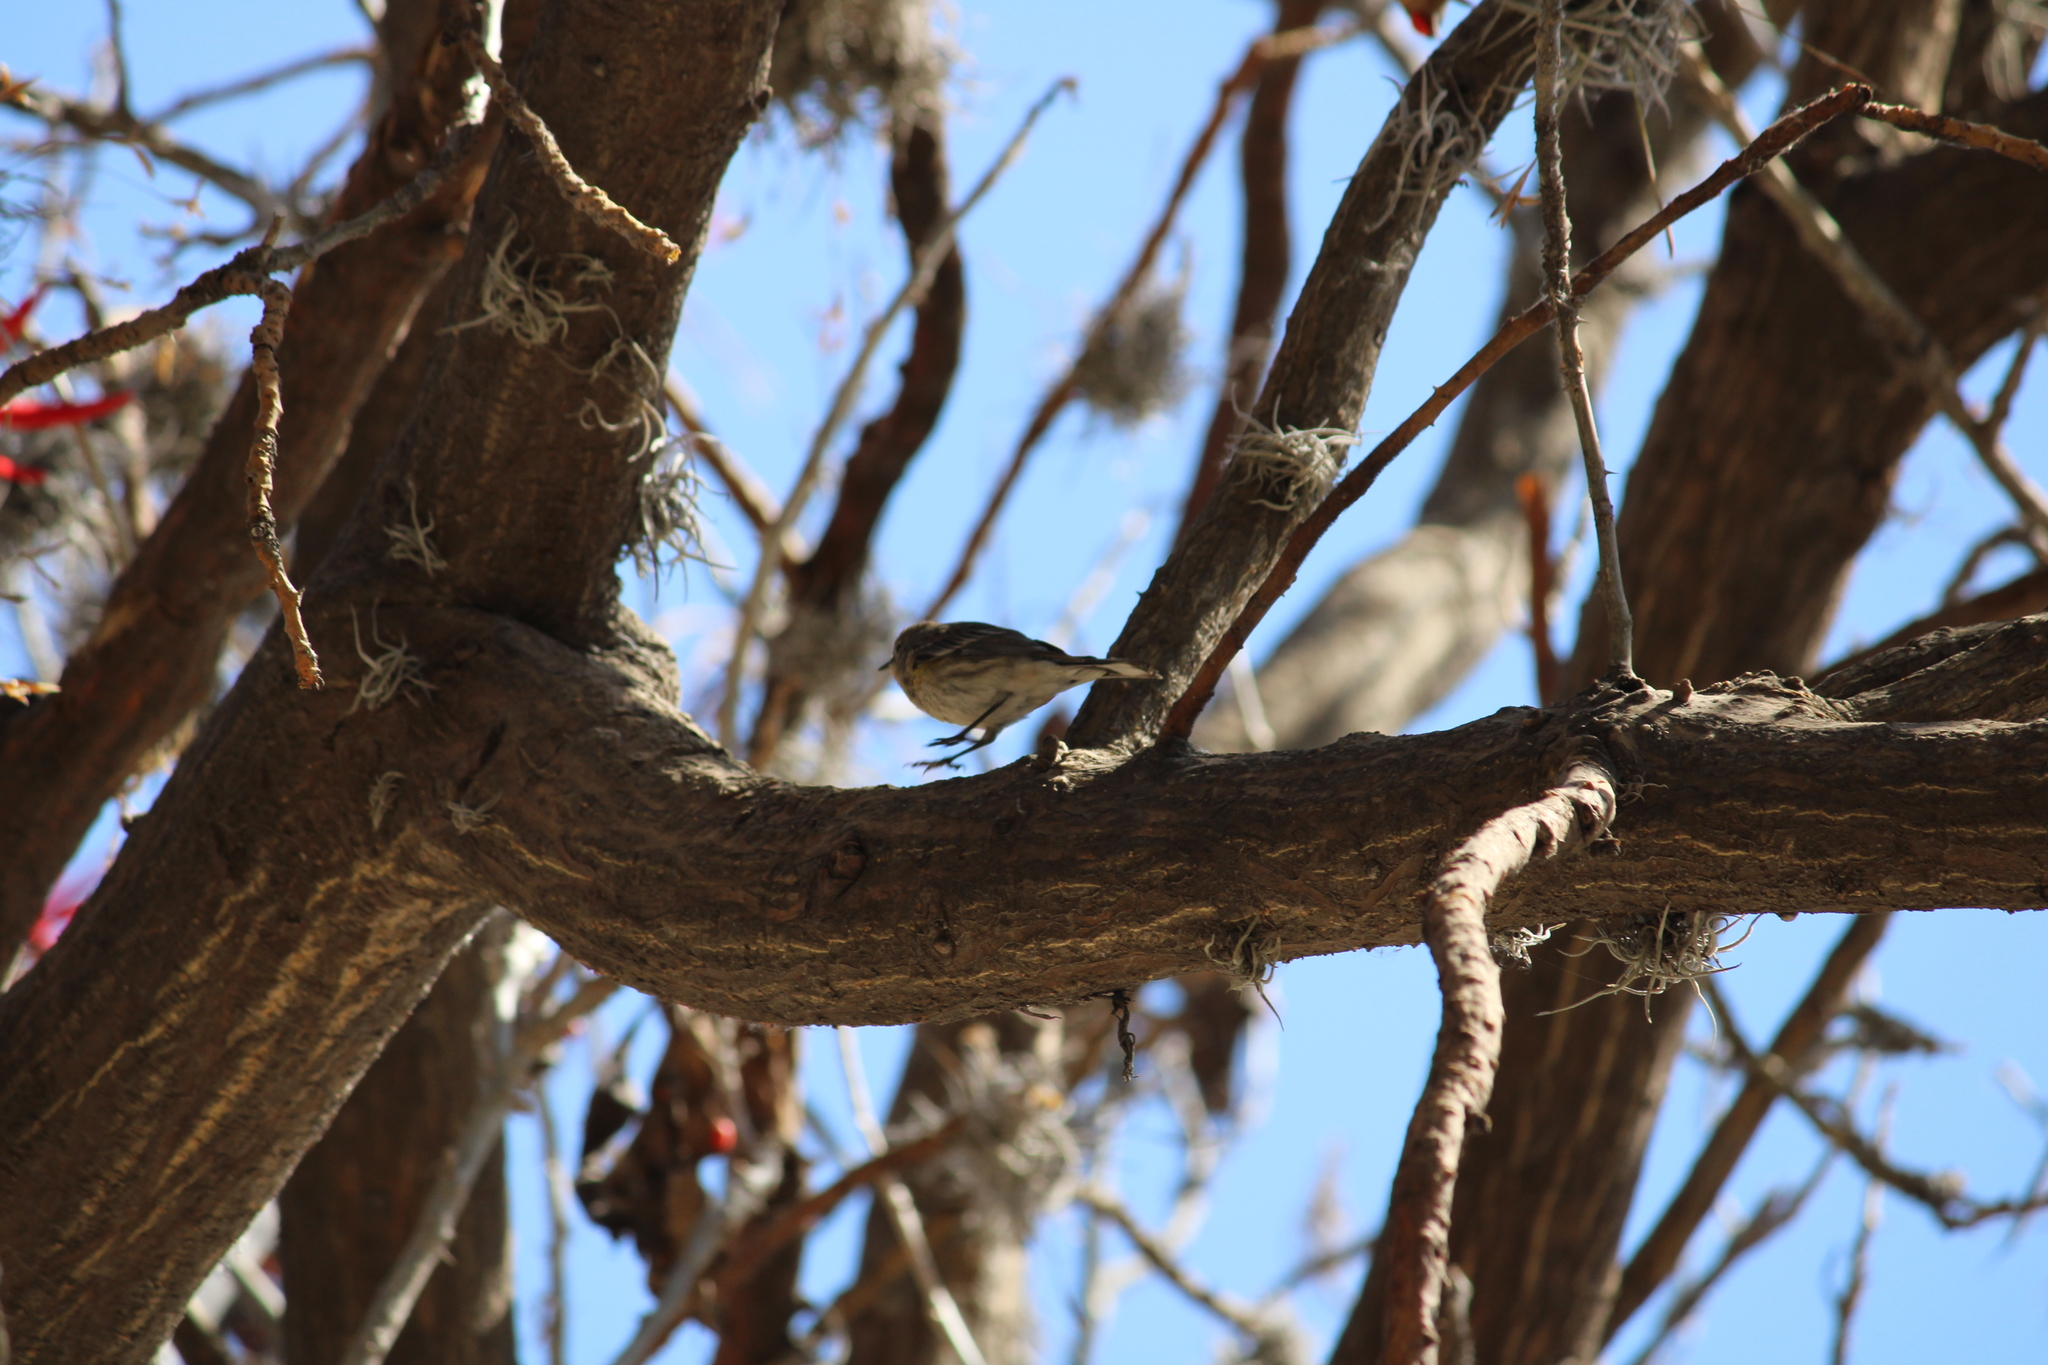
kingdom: Animalia
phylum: Chordata
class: Aves
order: Passeriformes
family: Parulidae
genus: Setophaga
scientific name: Setophaga coronata
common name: Myrtle warbler
